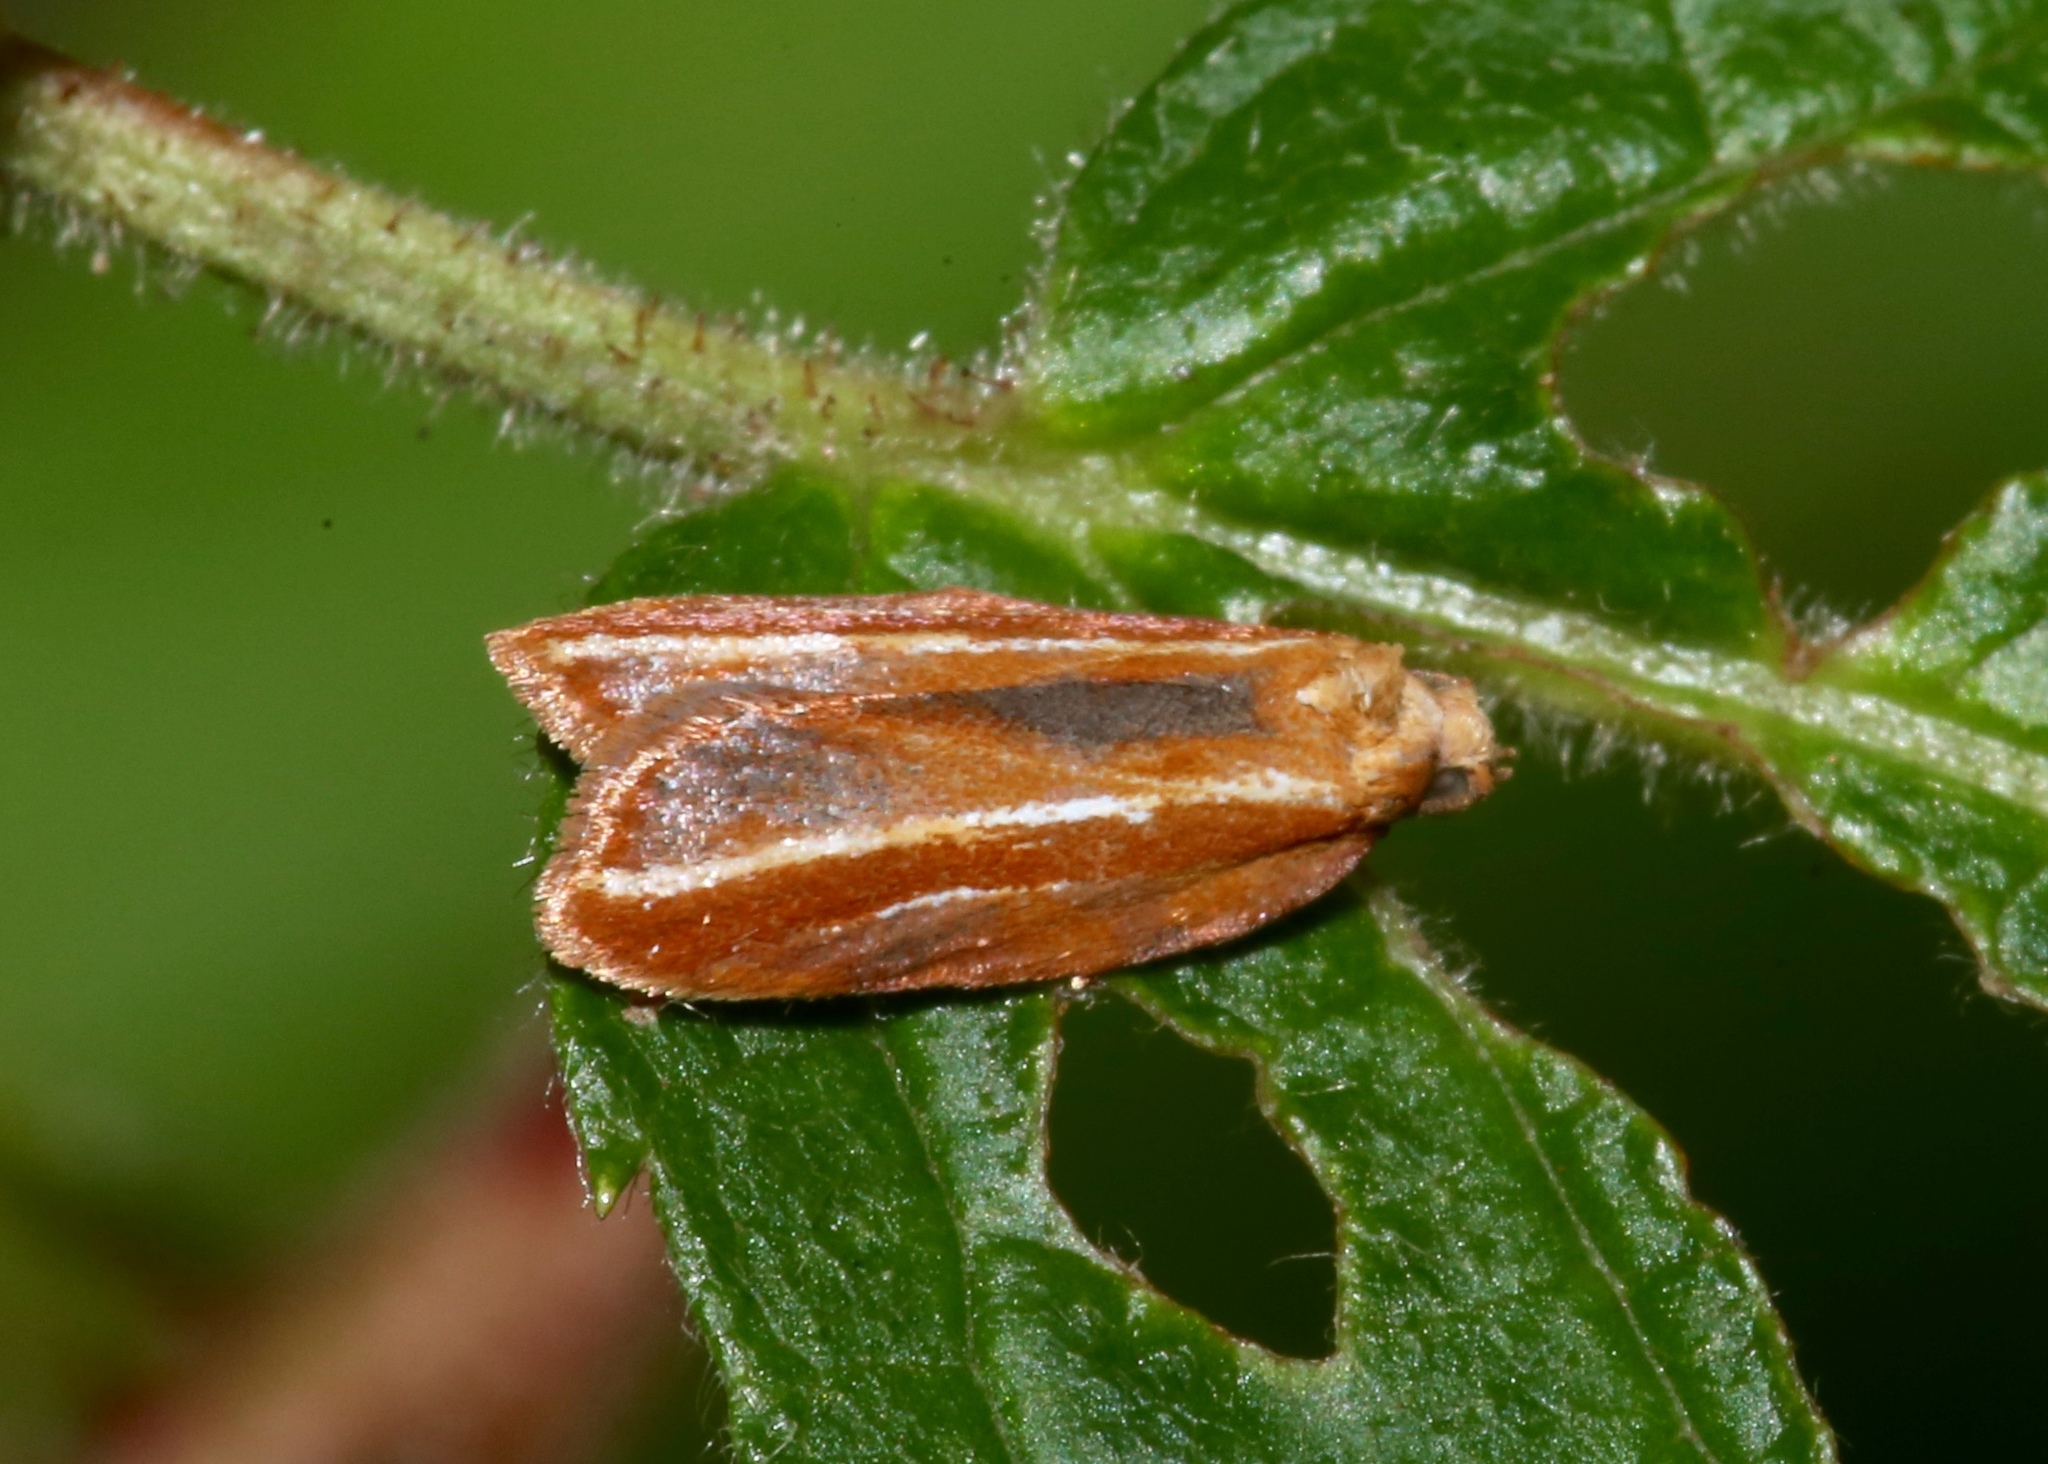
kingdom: Animalia
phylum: Arthropoda
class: Insecta
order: Lepidoptera
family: Tortricidae
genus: Acleris
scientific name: Acleris variana
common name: Eastern black-headed budworm moth
